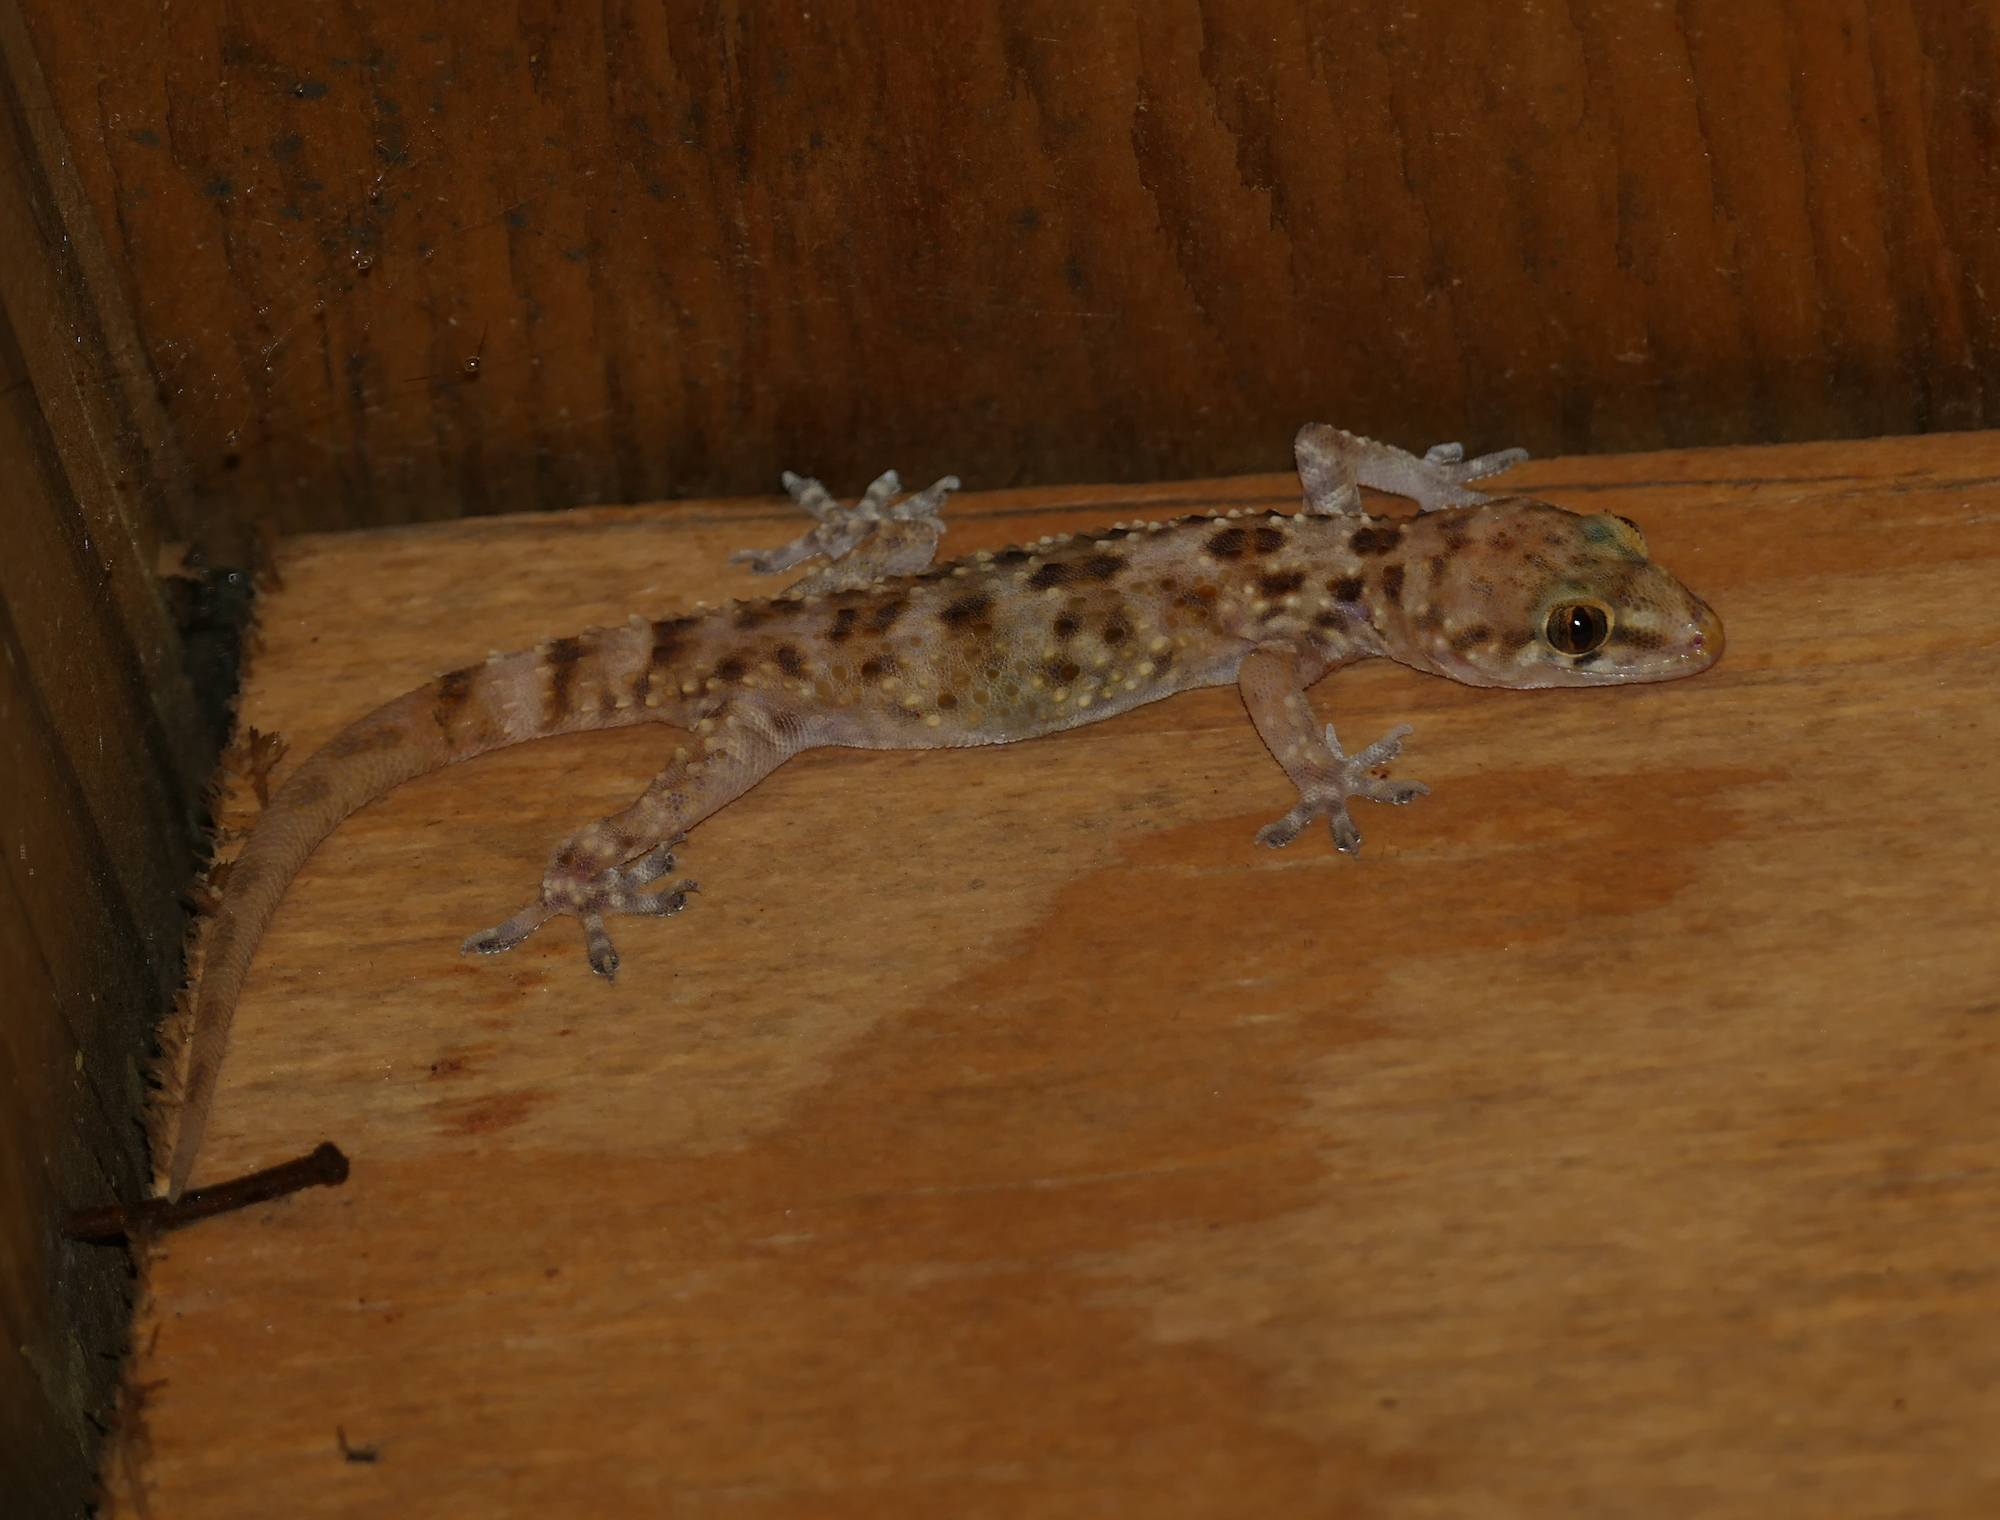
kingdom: Animalia
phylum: Chordata
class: Squamata
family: Gekkonidae
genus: Hemidactylus
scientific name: Hemidactylus turcicus
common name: Turkish gecko
